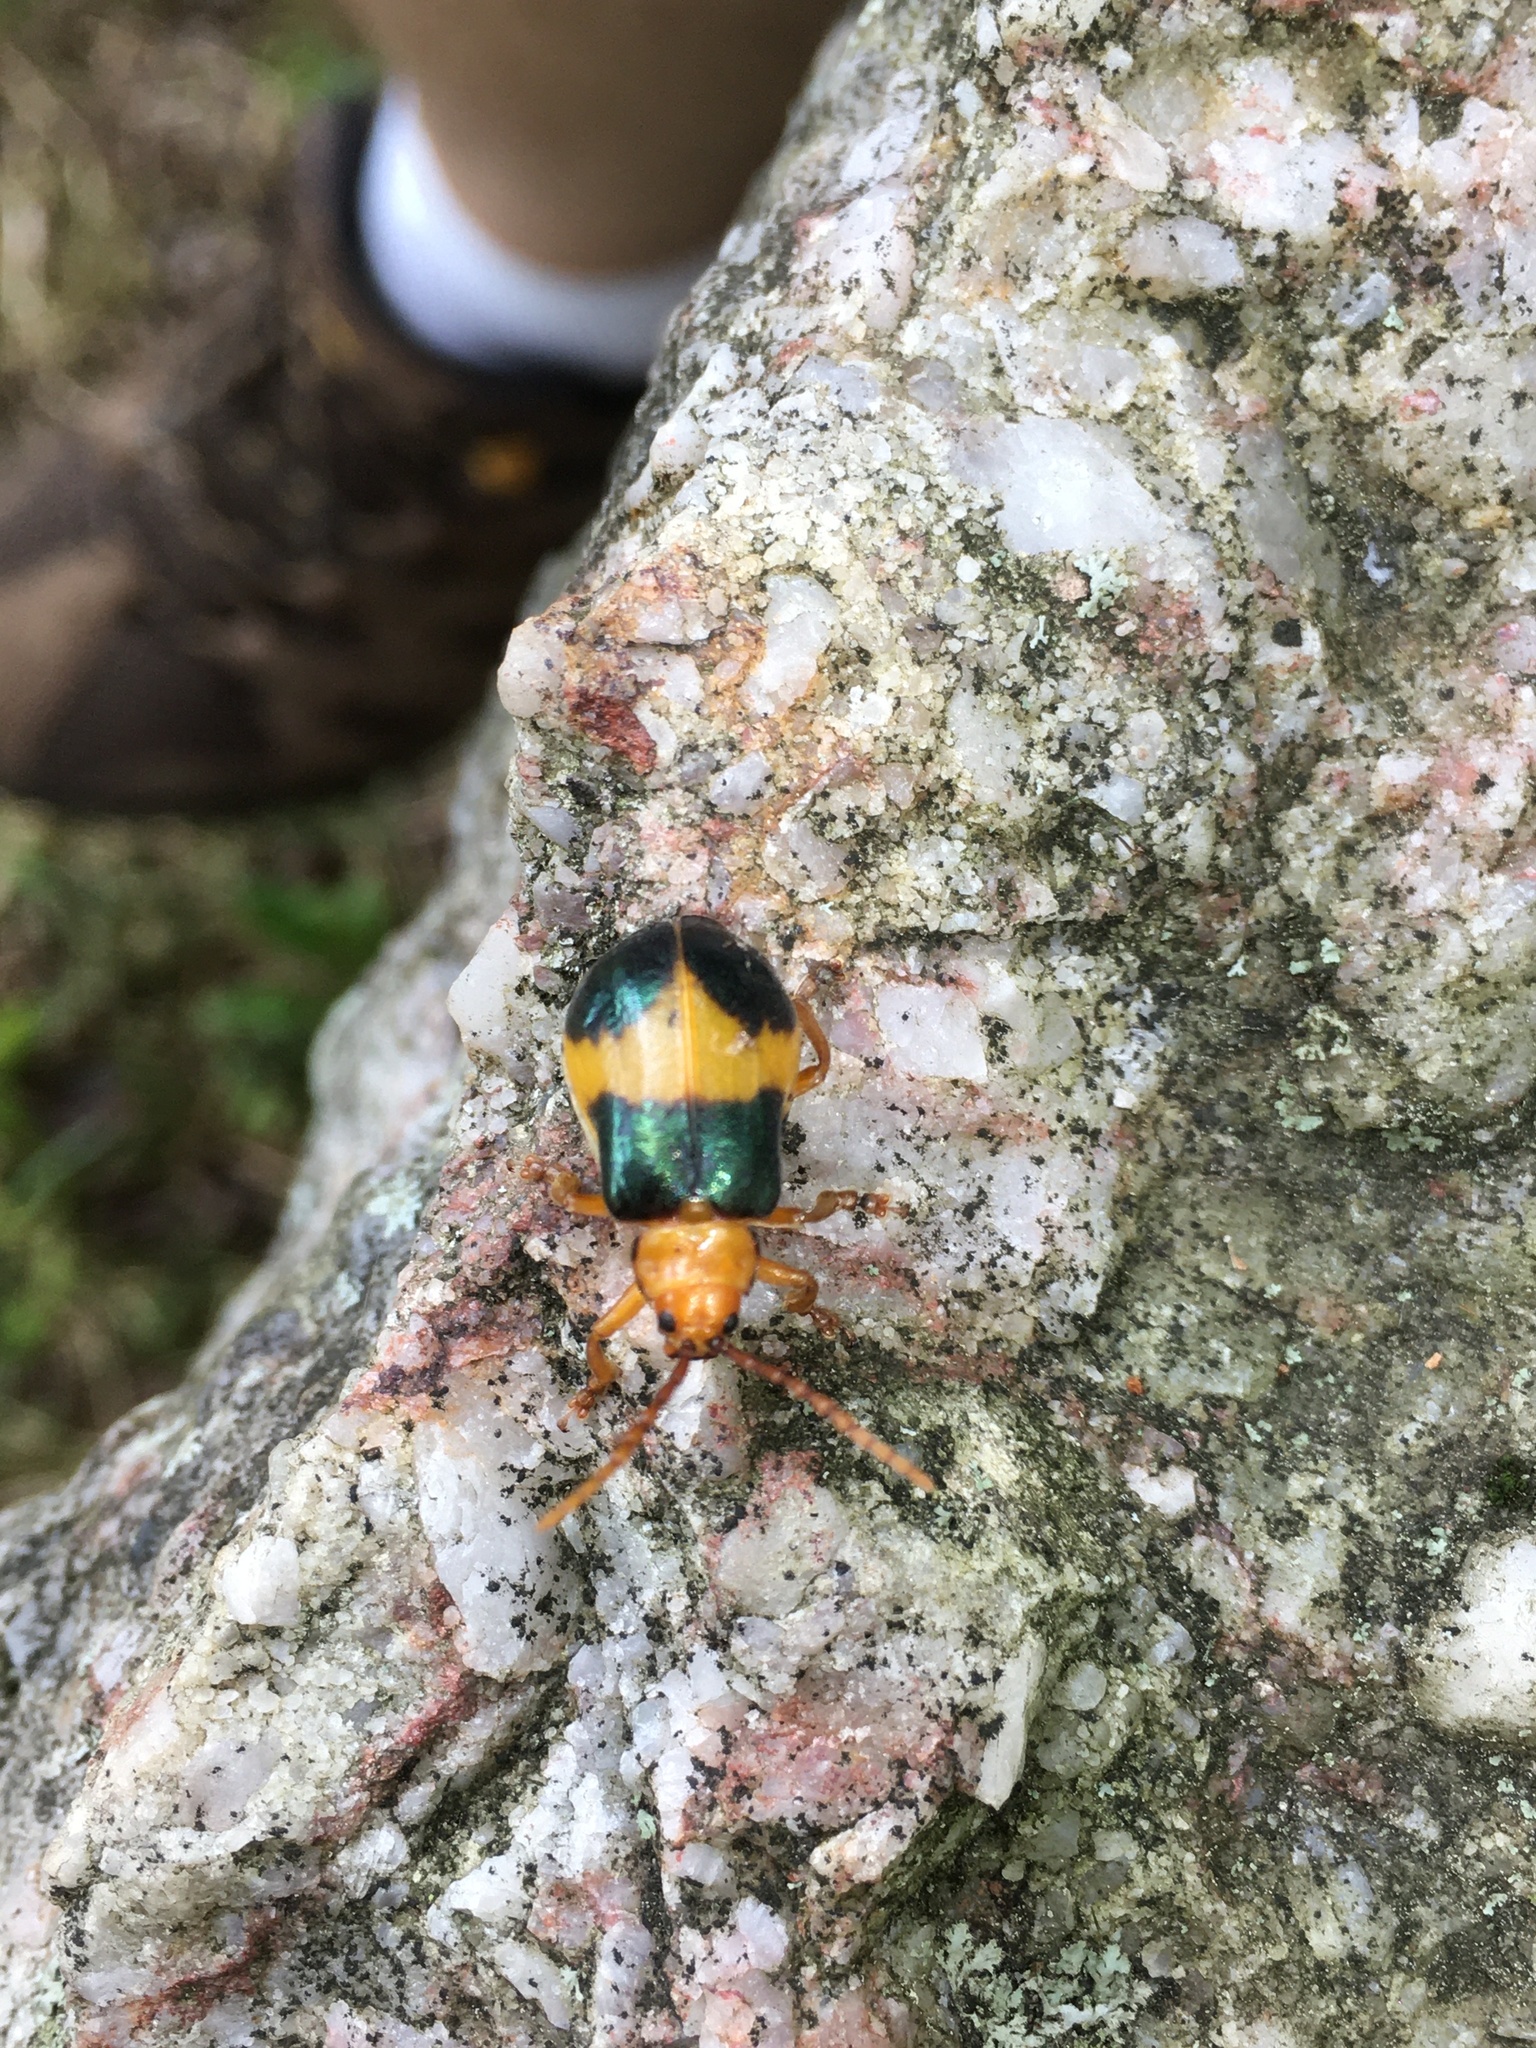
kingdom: Animalia
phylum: Arthropoda
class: Insecta
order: Coleoptera
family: Chrysomelidae
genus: Monocesta
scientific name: Monocesta coryli
